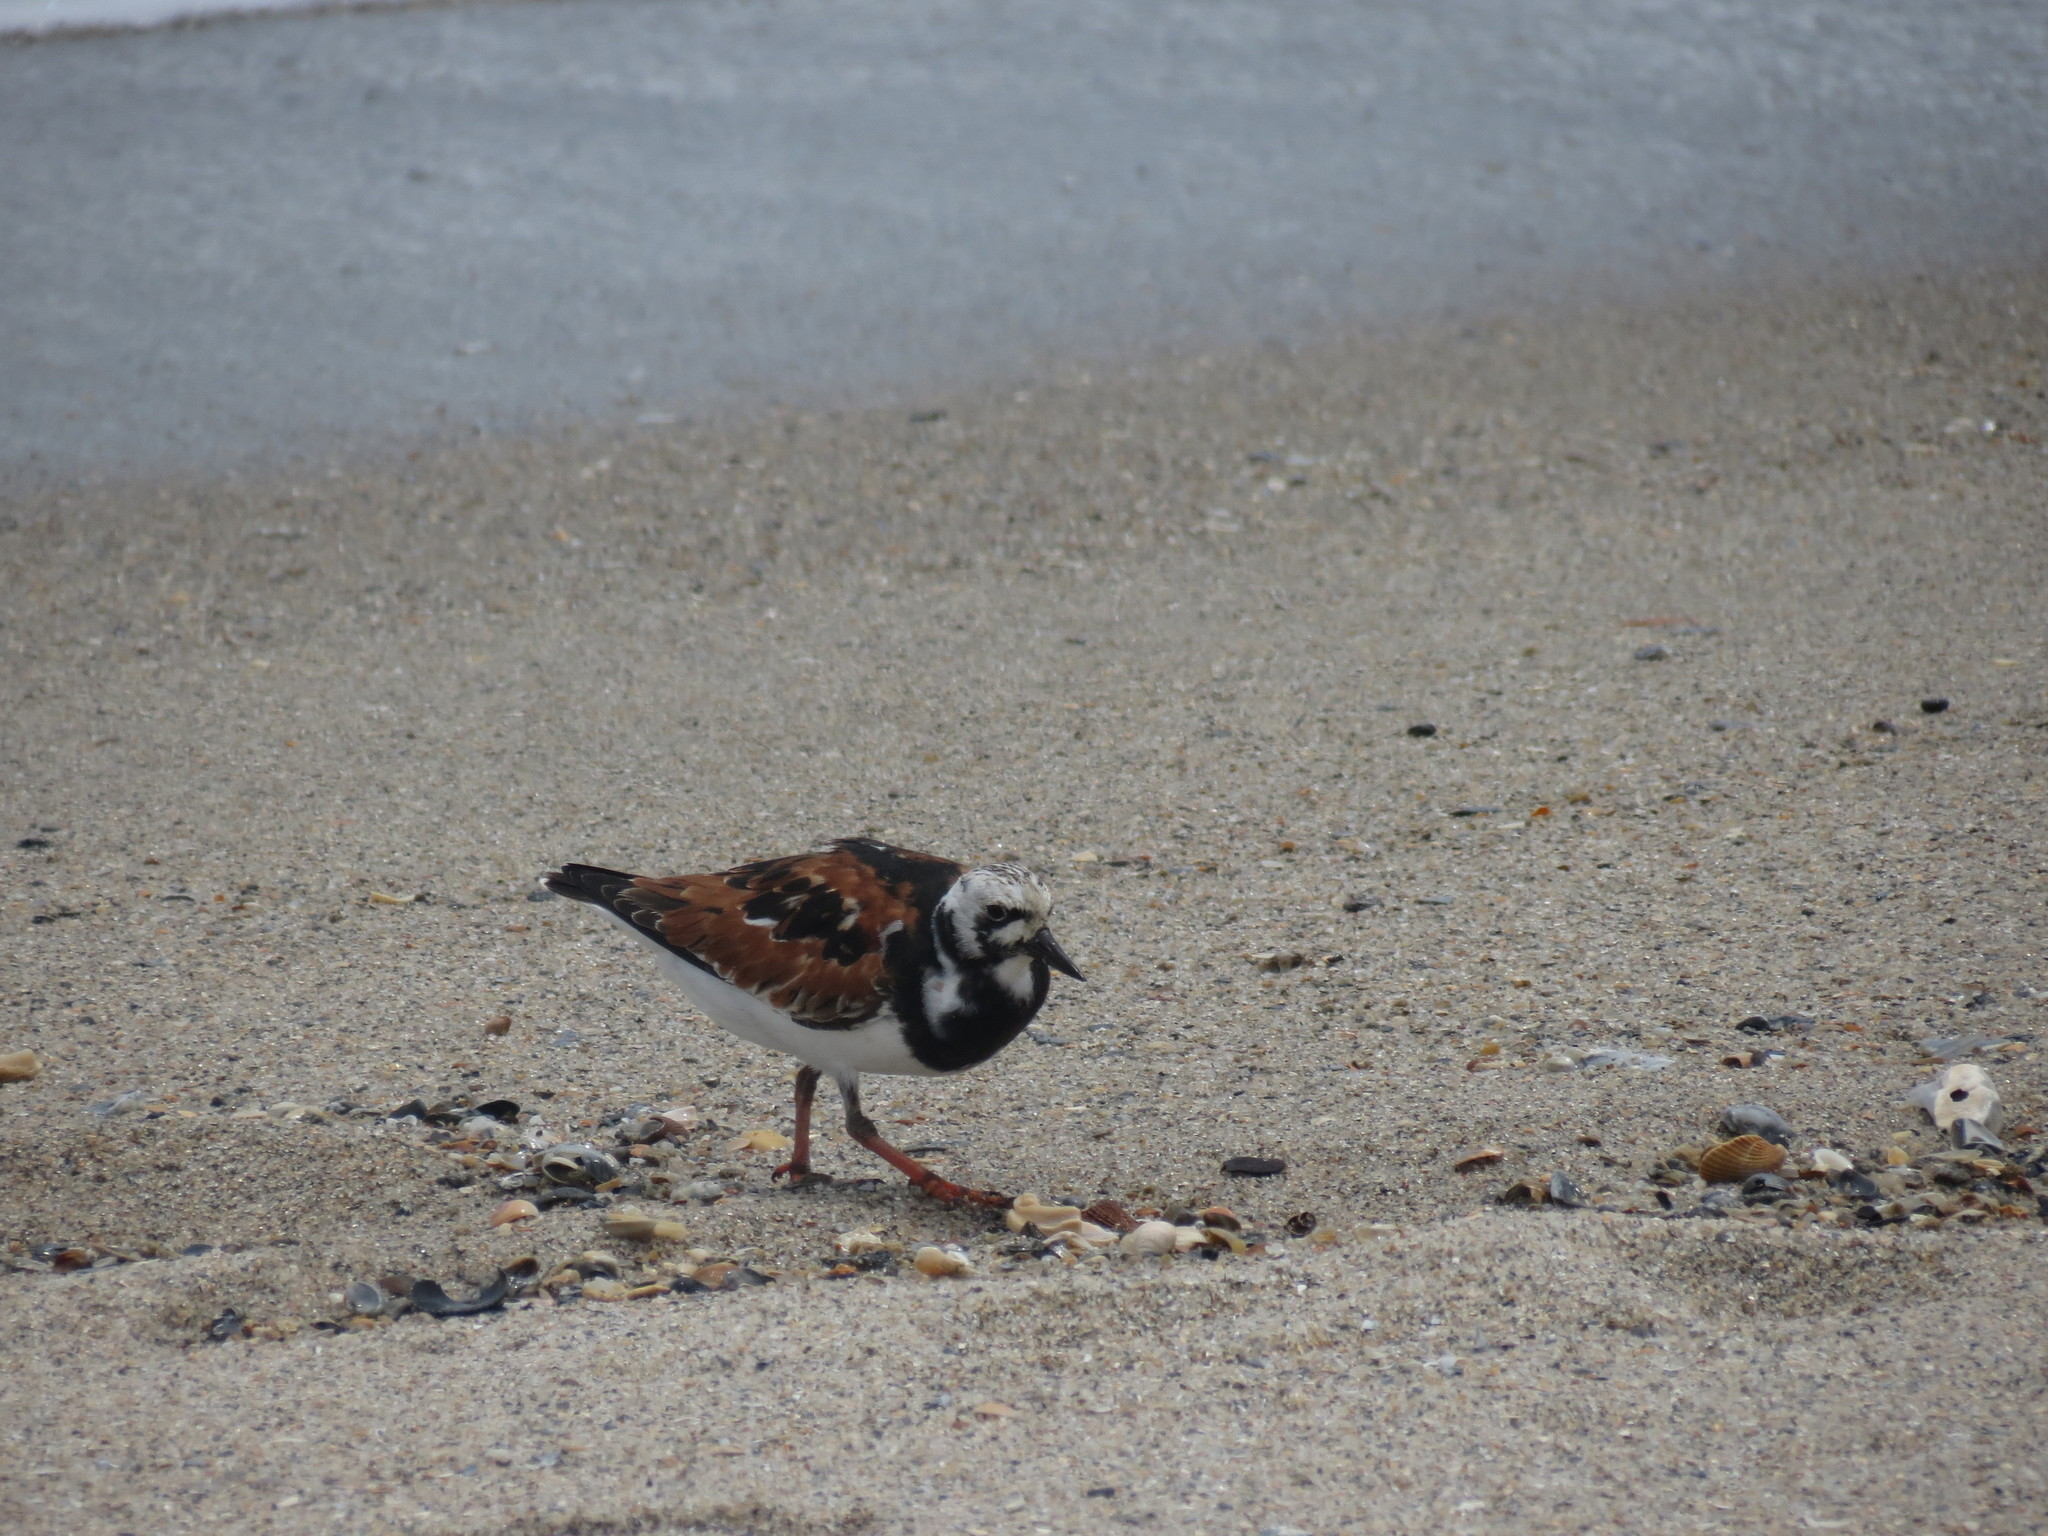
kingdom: Animalia
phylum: Chordata
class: Aves
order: Charadriiformes
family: Scolopacidae
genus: Arenaria
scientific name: Arenaria interpres
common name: Ruddy turnstone
